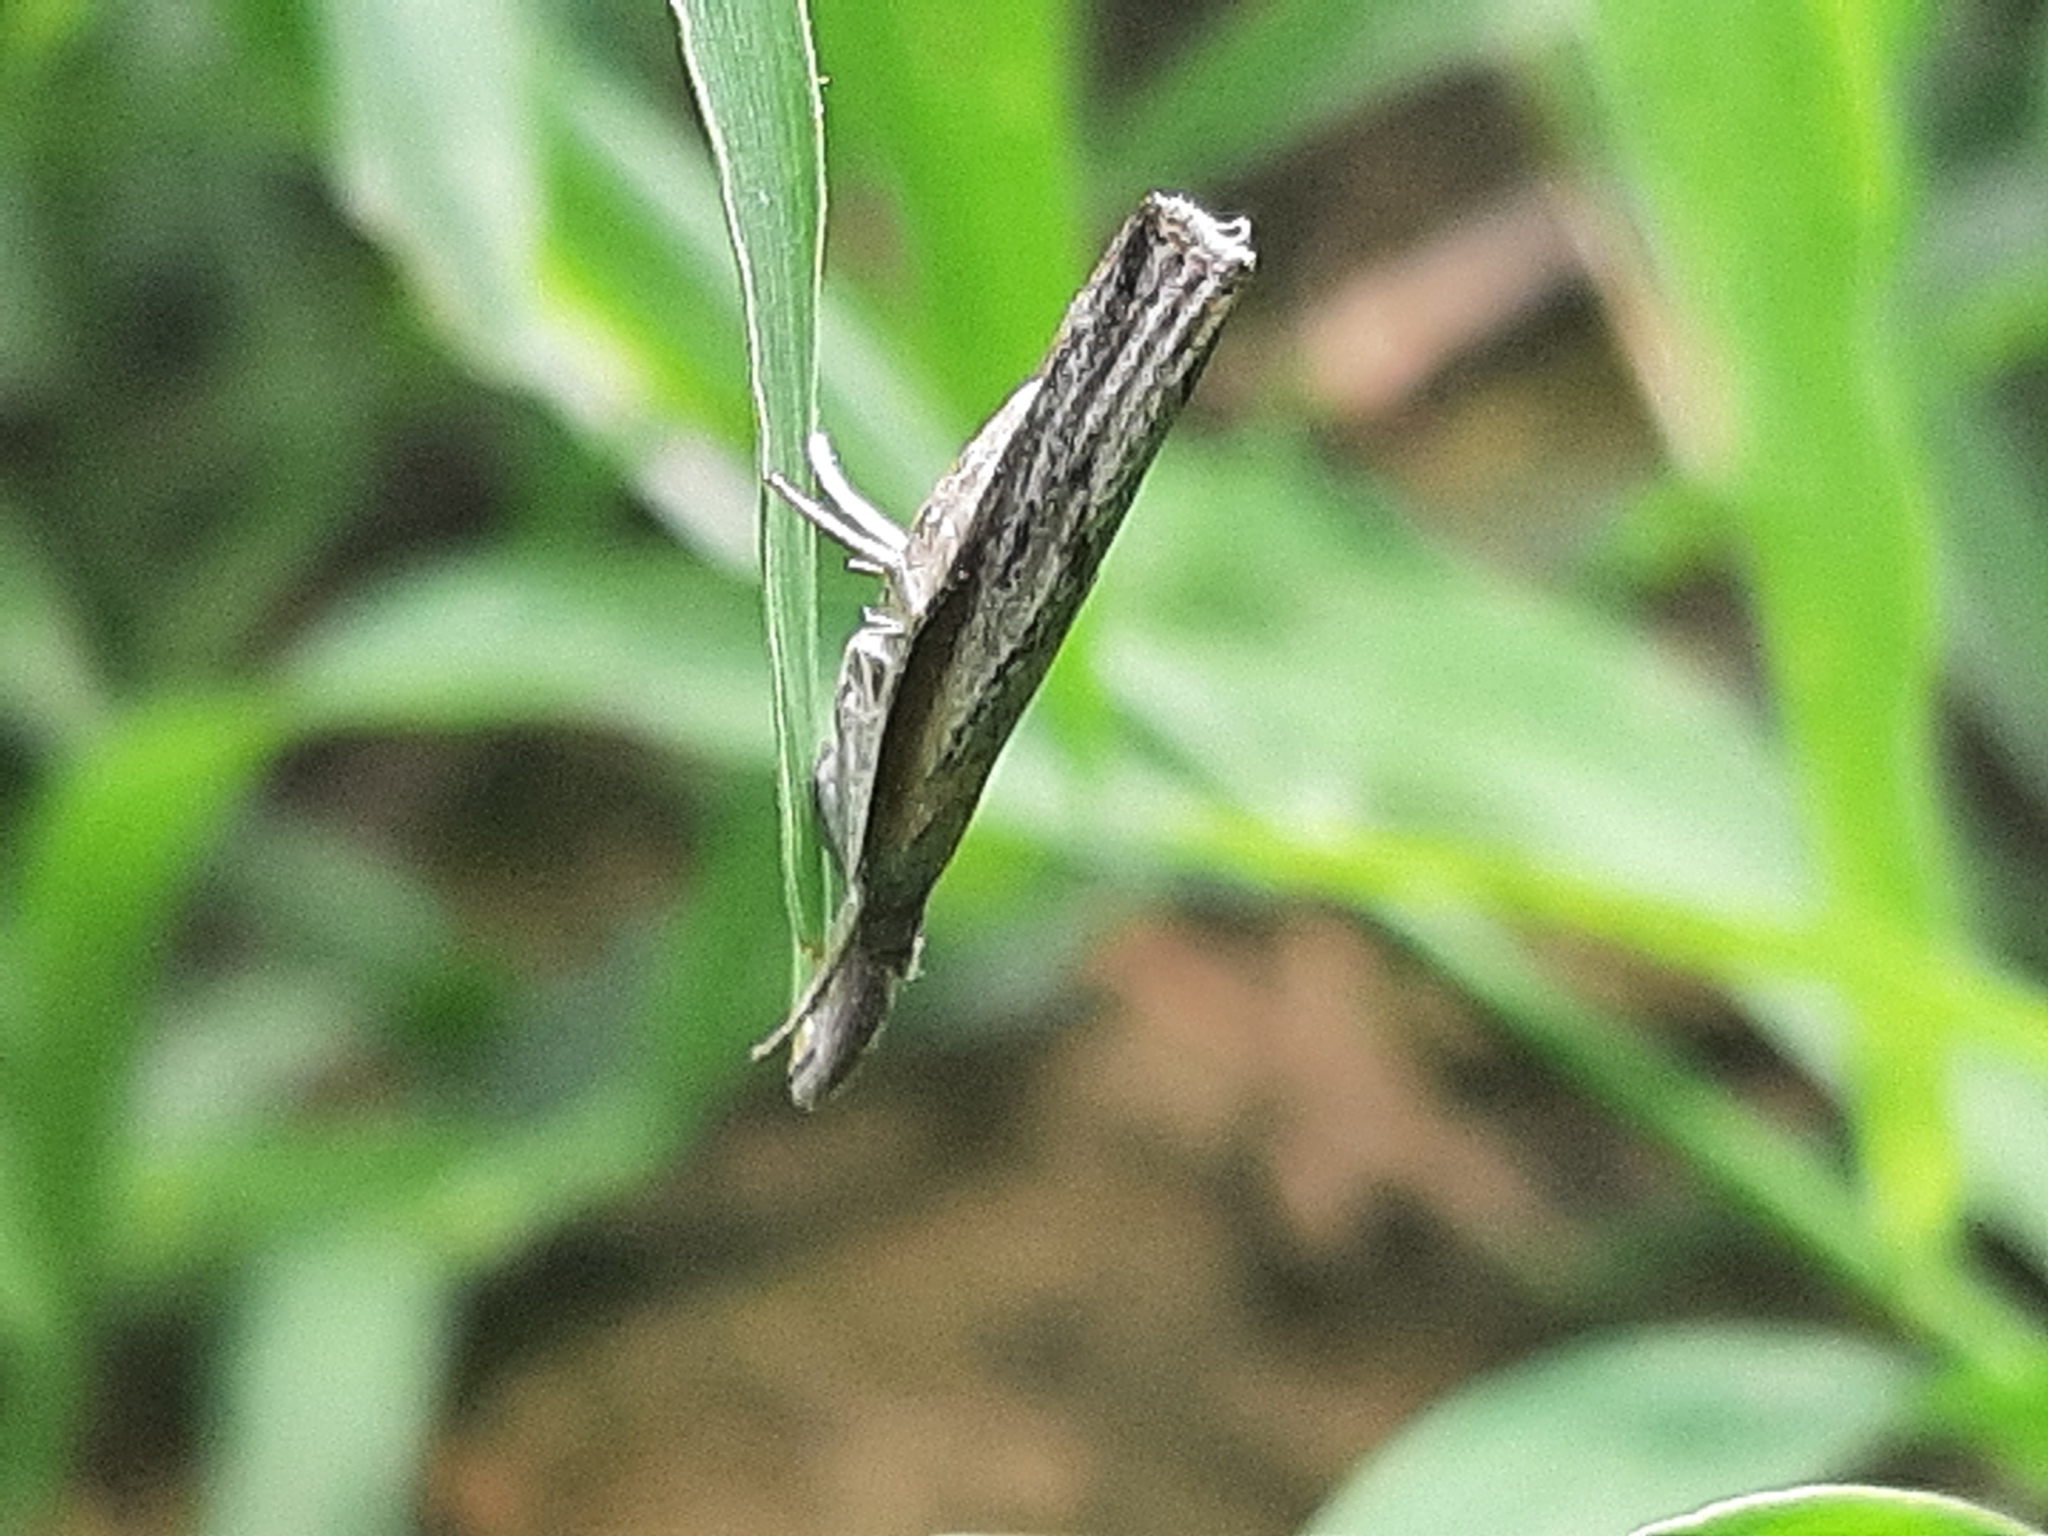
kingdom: Animalia
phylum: Arthropoda
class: Insecta
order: Lepidoptera
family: Crambidae
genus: Fissicrambus
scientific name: Fissicrambus mutabilis
